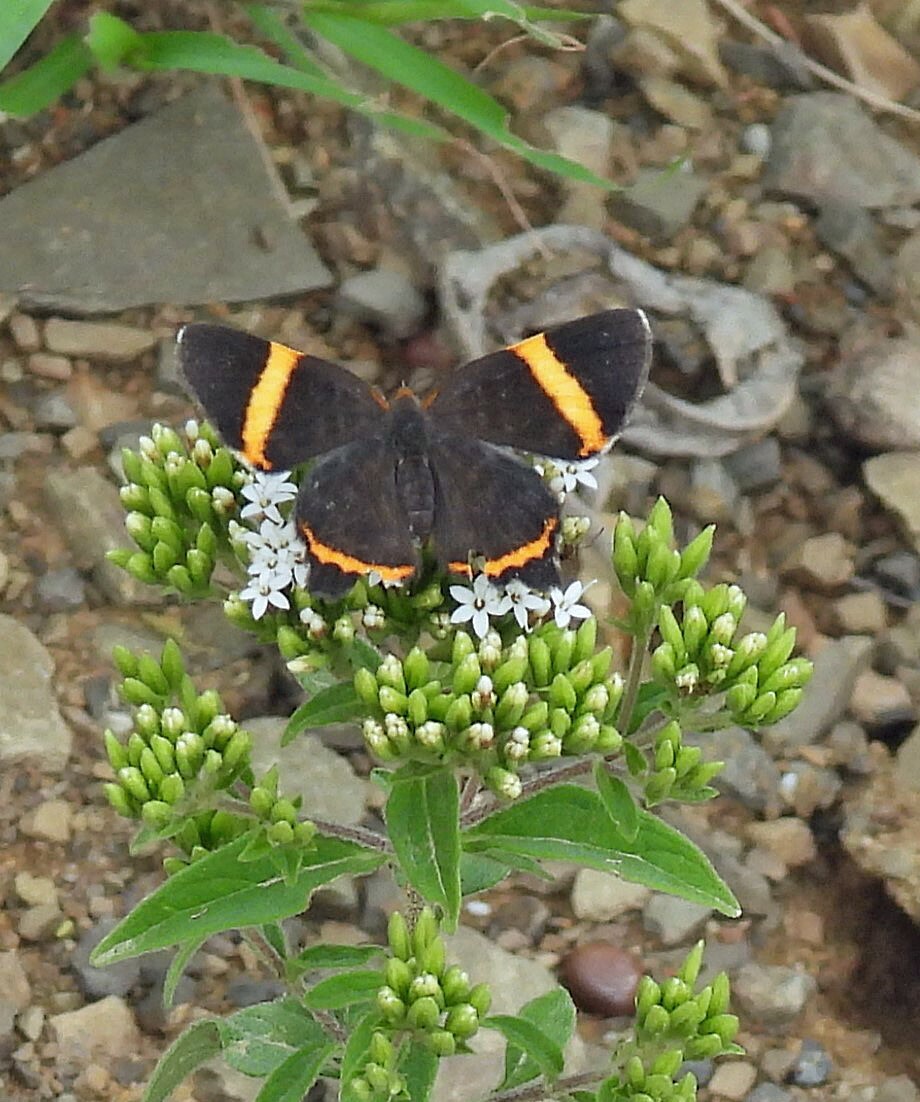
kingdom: Animalia
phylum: Arthropoda
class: Insecta
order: Lepidoptera
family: Riodinidae
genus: Riodina
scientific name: Riodina lysippoides
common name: Little dancer metalmark
